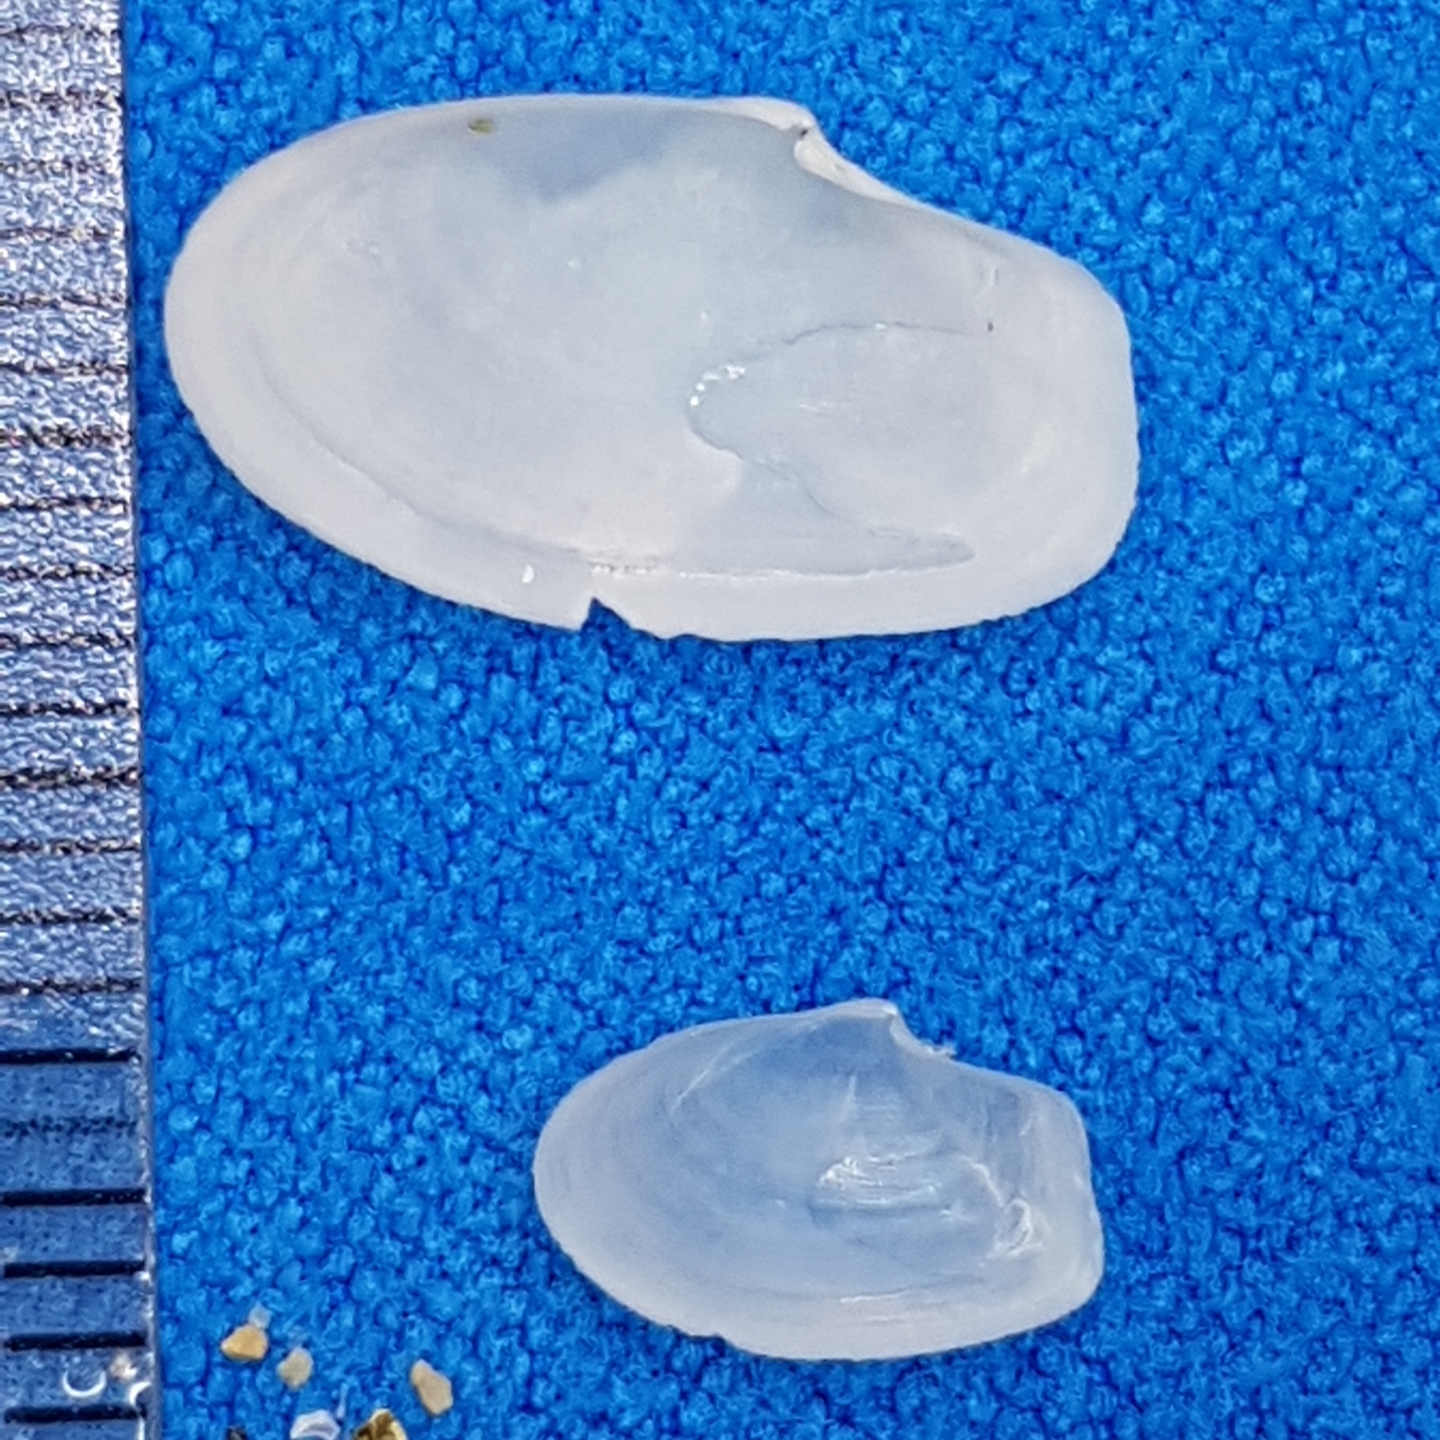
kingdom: Animalia
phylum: Mollusca
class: Bivalvia
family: Thraciidae
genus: Thracia
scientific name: Thracia phaseolina
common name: Kidneybean thracia
